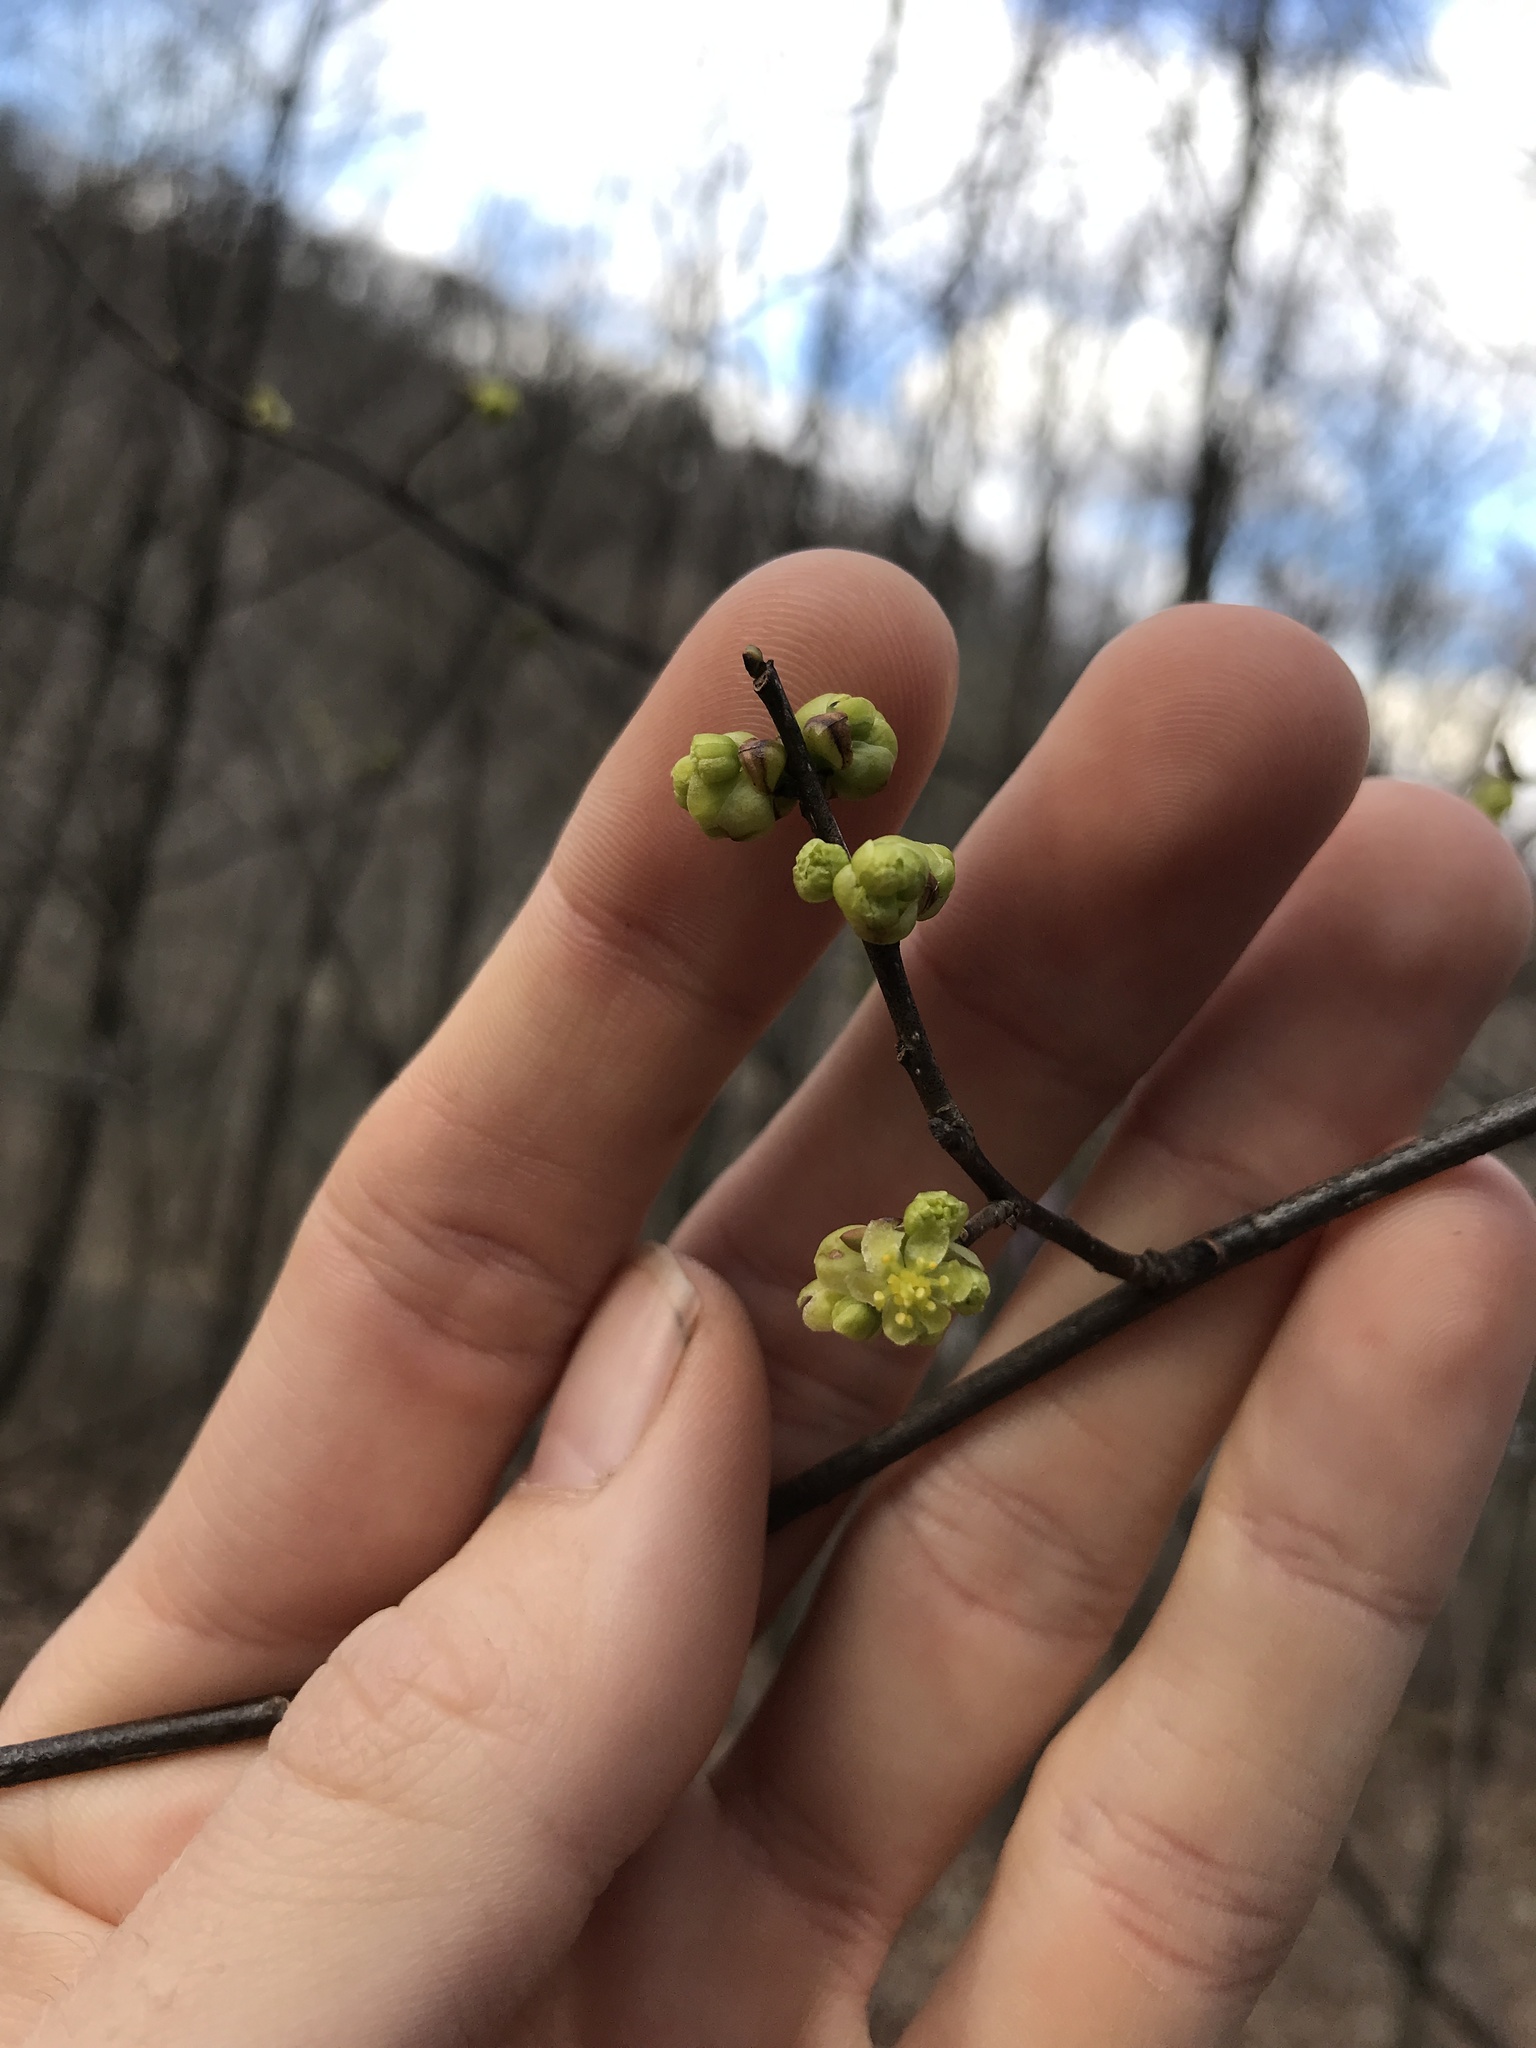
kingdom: Plantae
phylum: Tracheophyta
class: Magnoliopsida
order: Laurales
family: Lauraceae
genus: Lindera
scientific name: Lindera benzoin
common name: Spicebush
